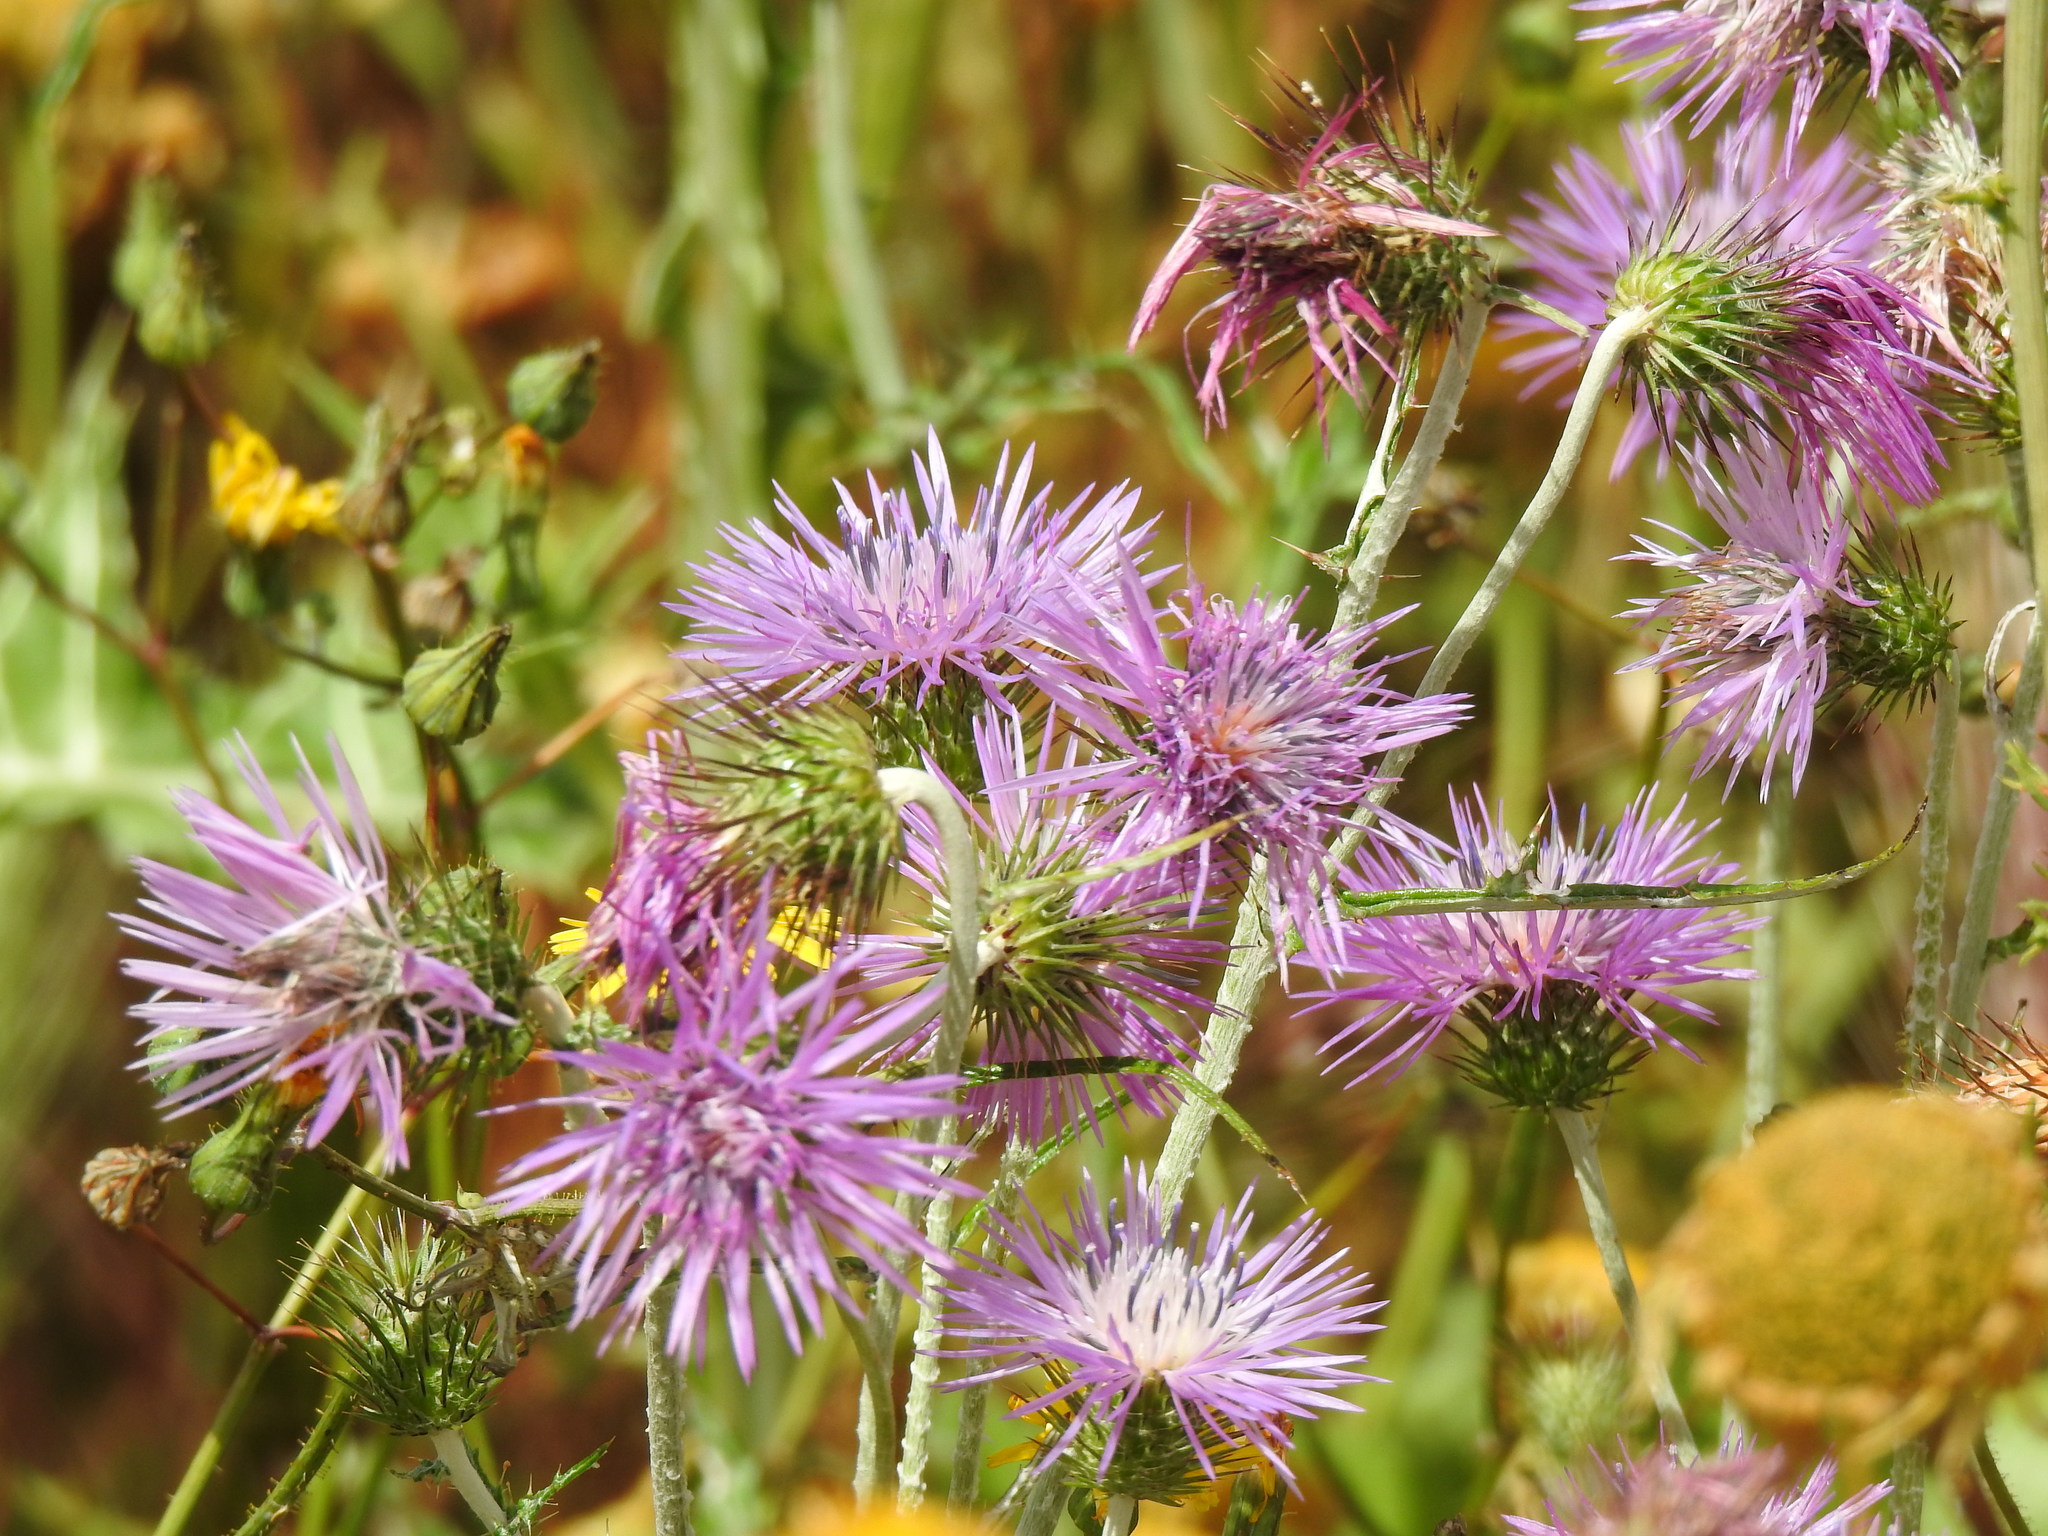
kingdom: Plantae
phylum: Tracheophyta
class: Magnoliopsida
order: Asterales
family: Asteraceae
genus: Galactites
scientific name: Galactites tomentosa
